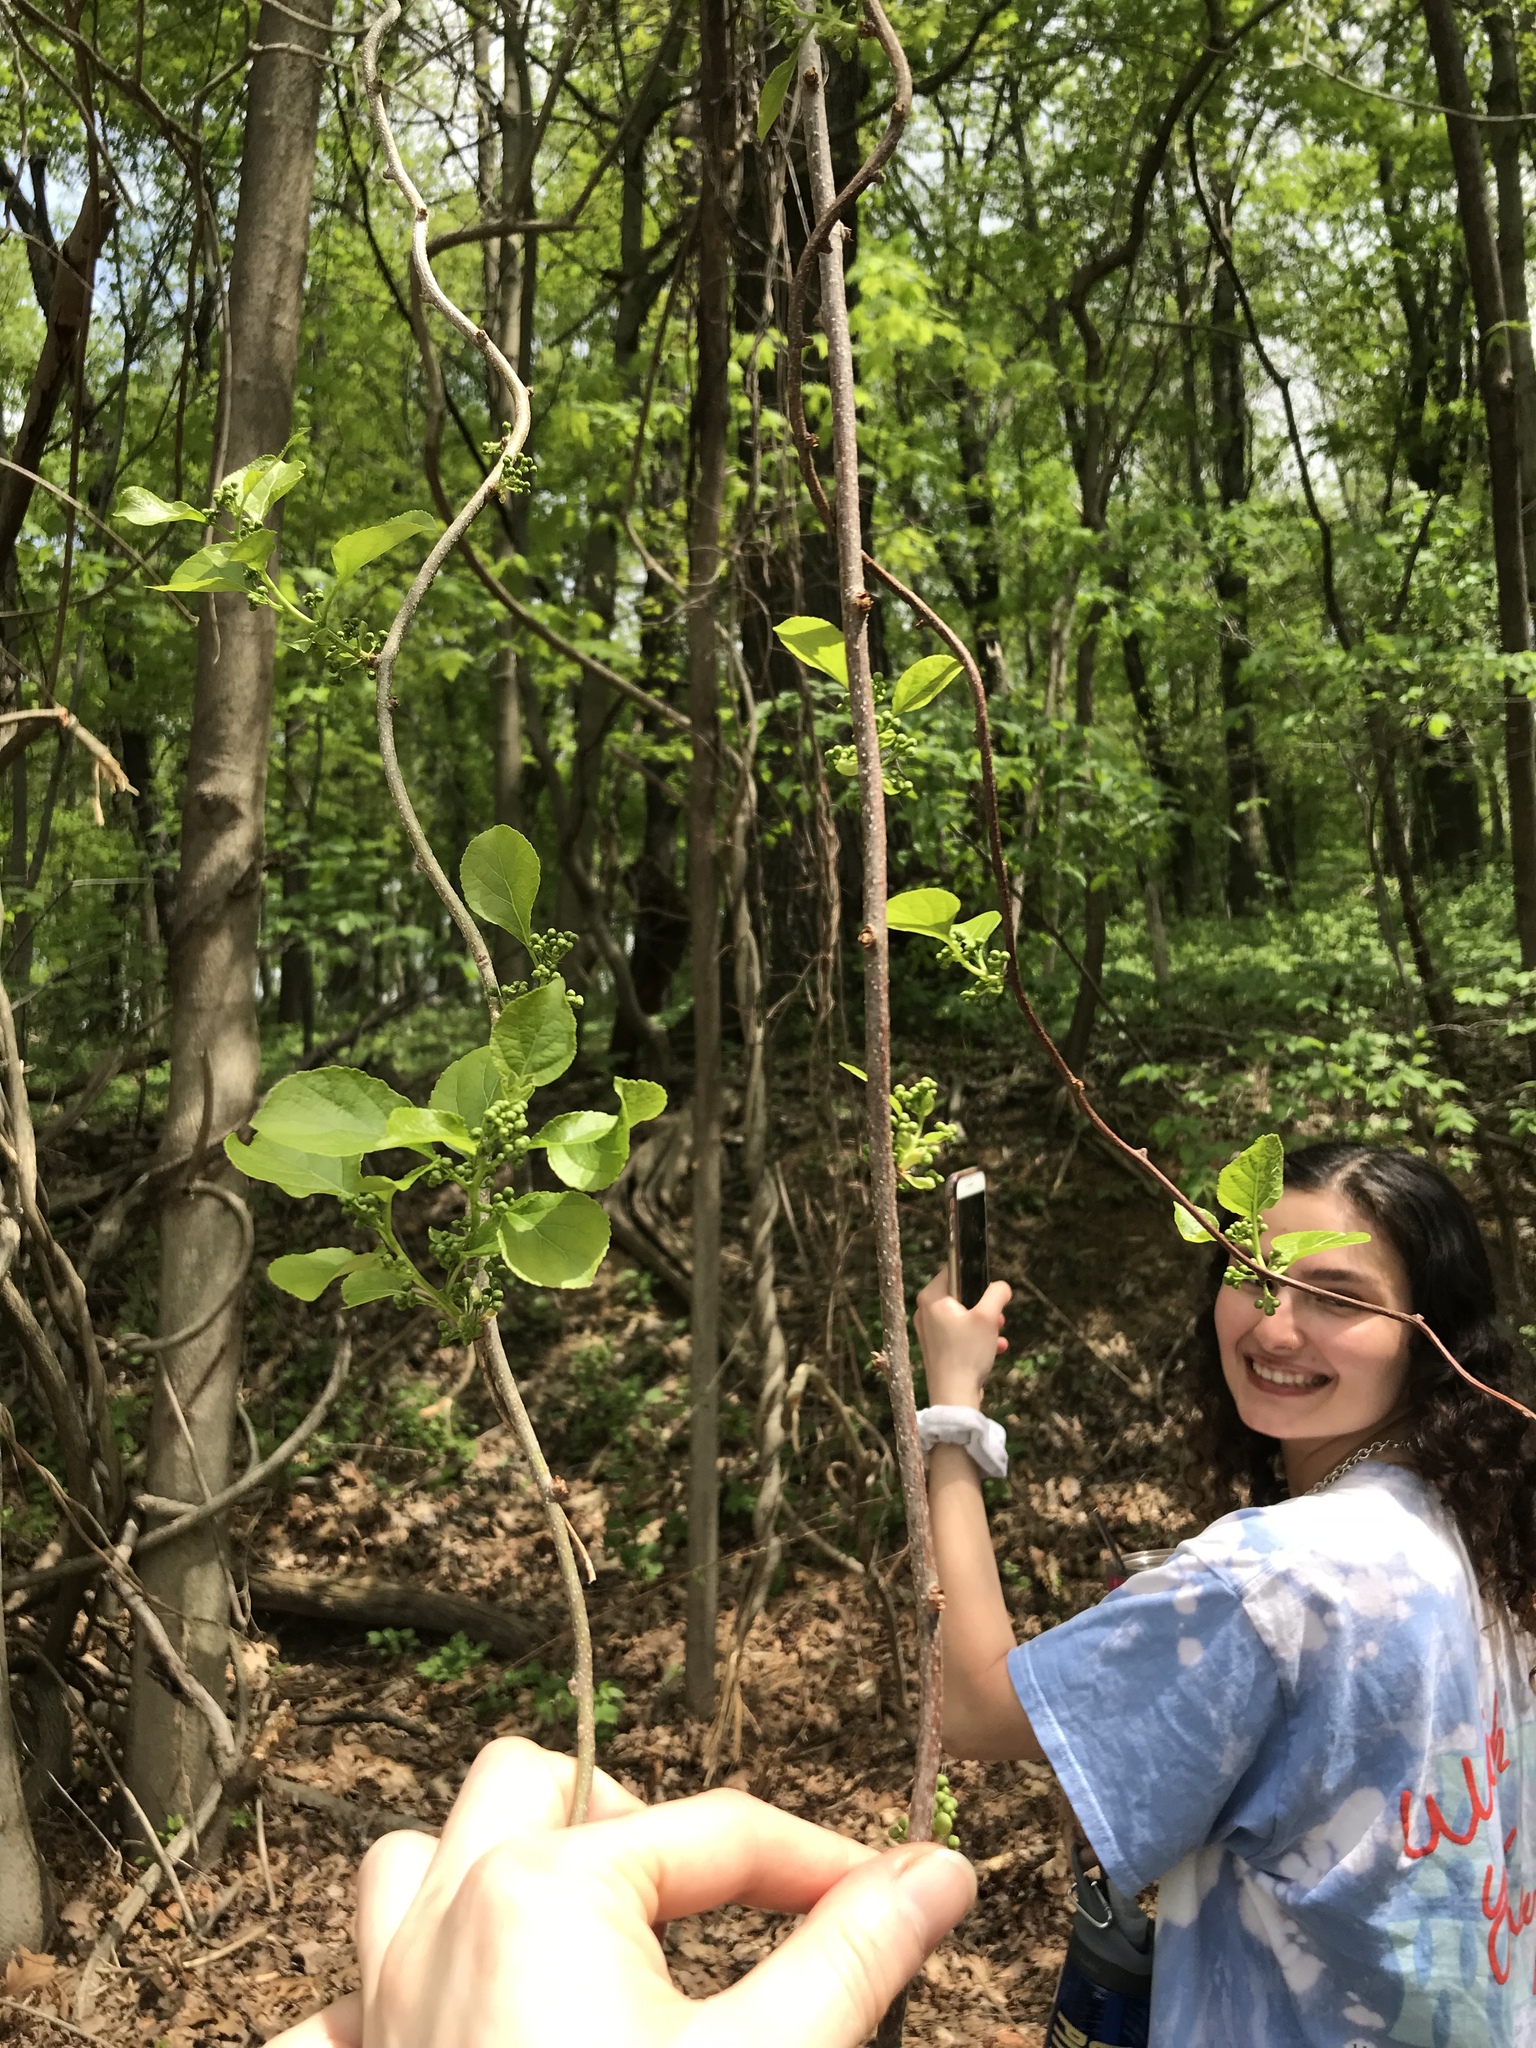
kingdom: Plantae
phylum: Tracheophyta
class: Magnoliopsida
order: Celastrales
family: Celastraceae
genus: Celastrus
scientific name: Celastrus orbiculatus
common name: Oriental bittersweet
